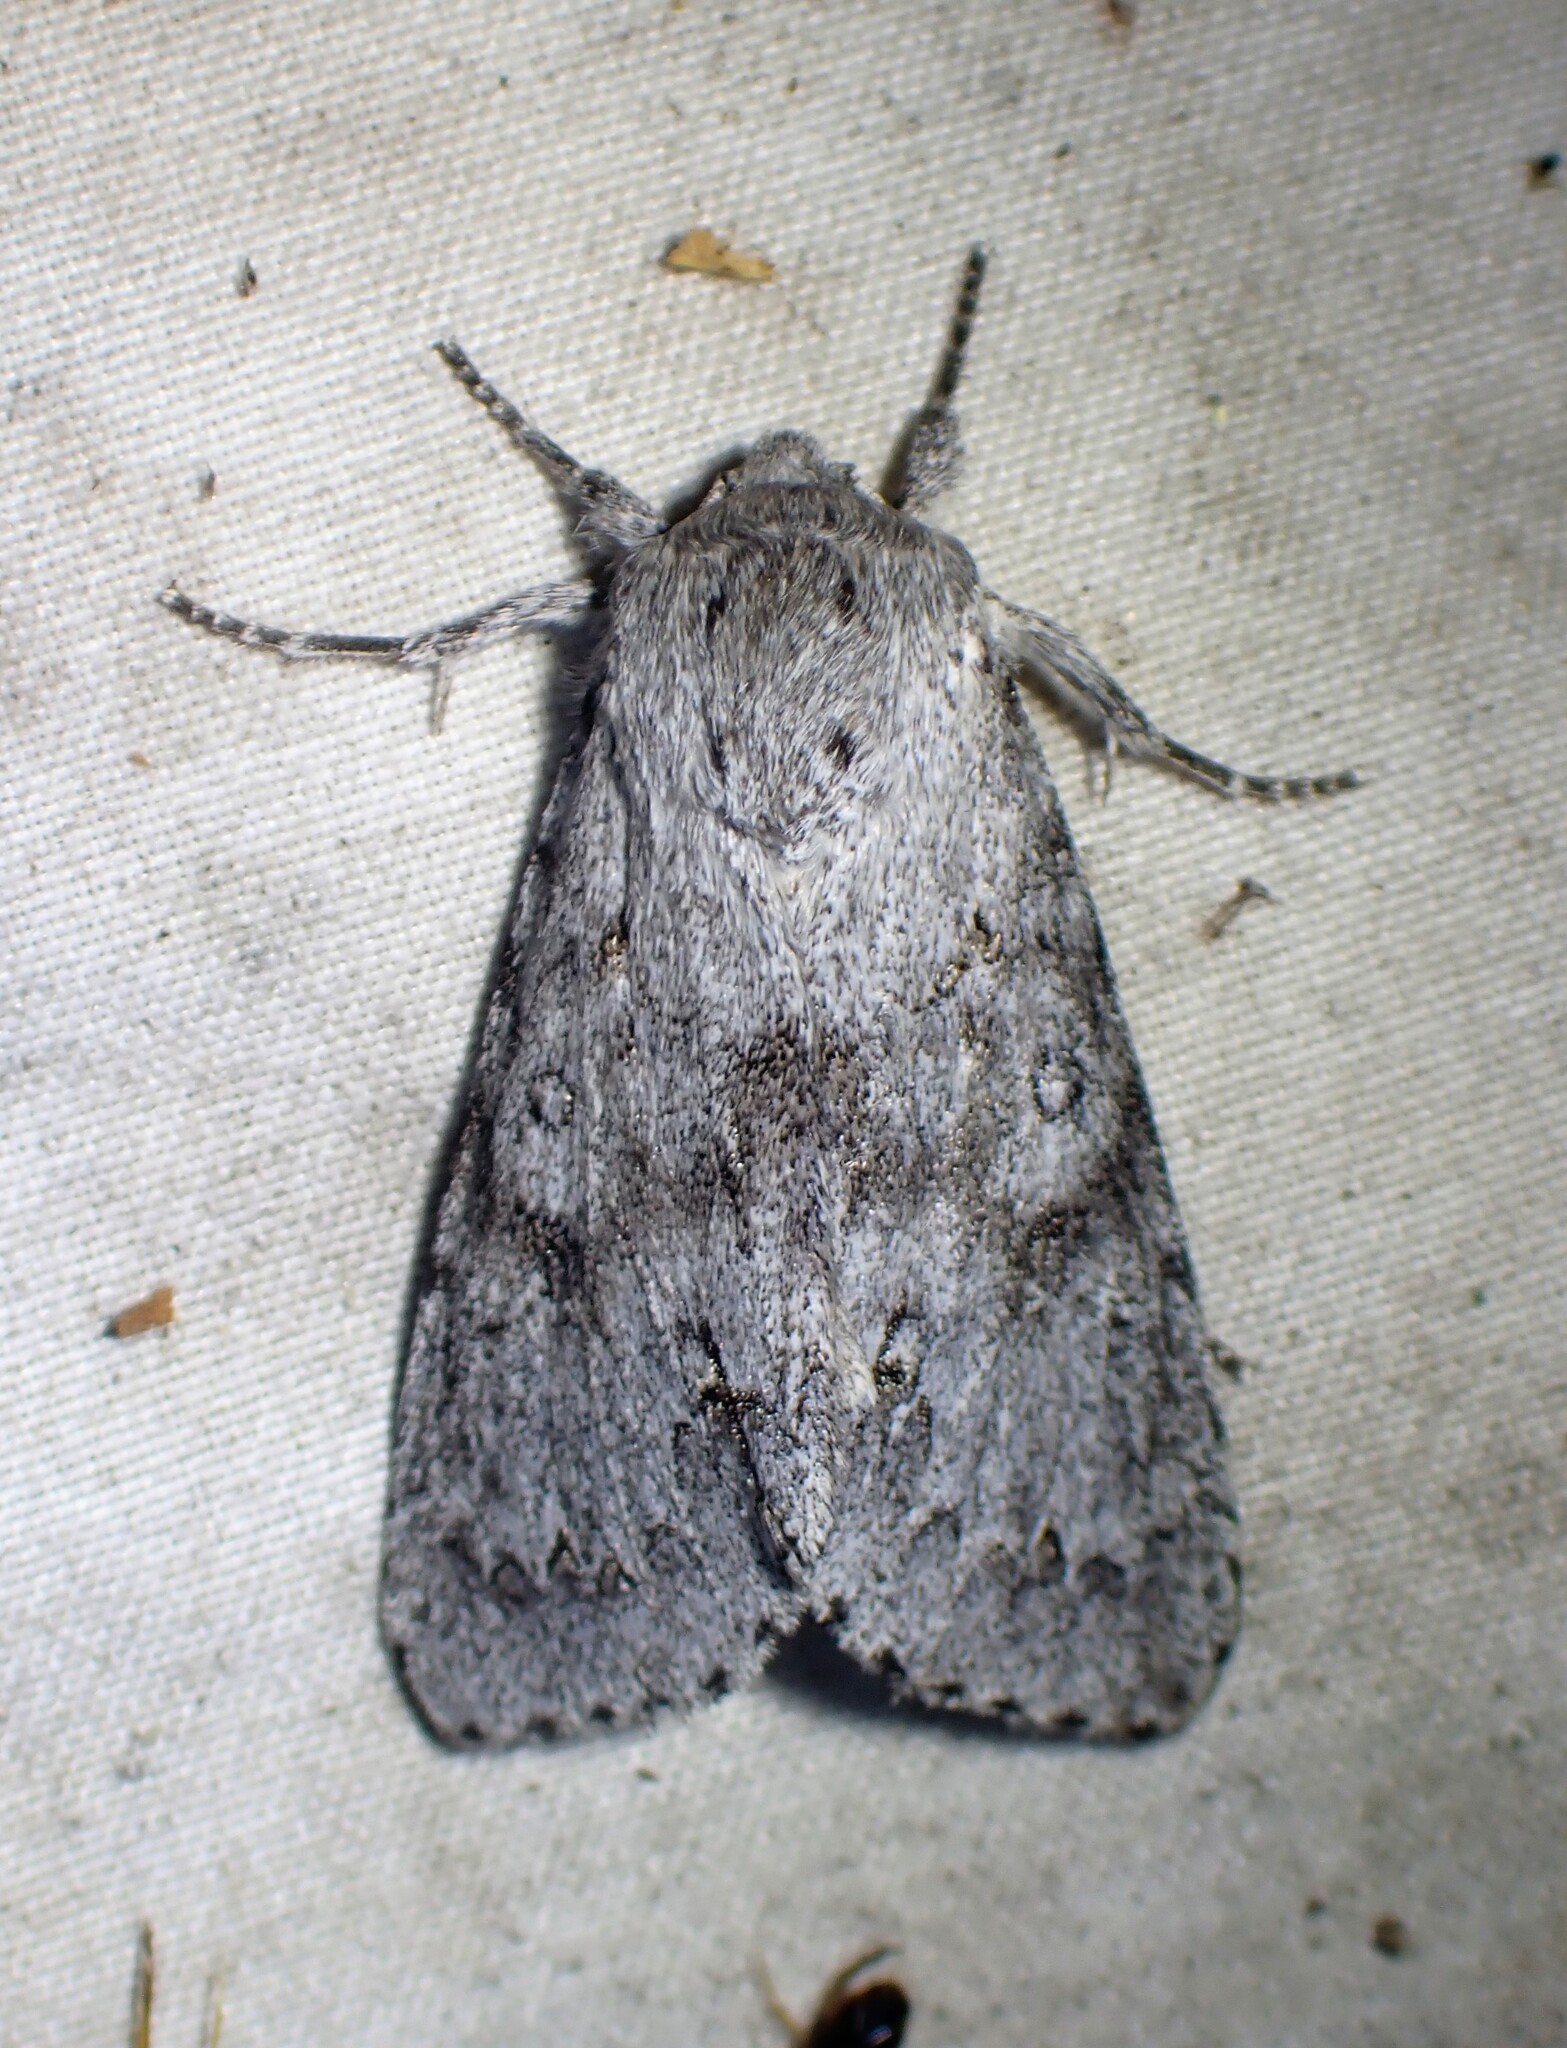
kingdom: Animalia
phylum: Arthropoda
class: Insecta
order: Lepidoptera
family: Noctuidae
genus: Acronicta
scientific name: Acronicta insita
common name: Large gray dagger
